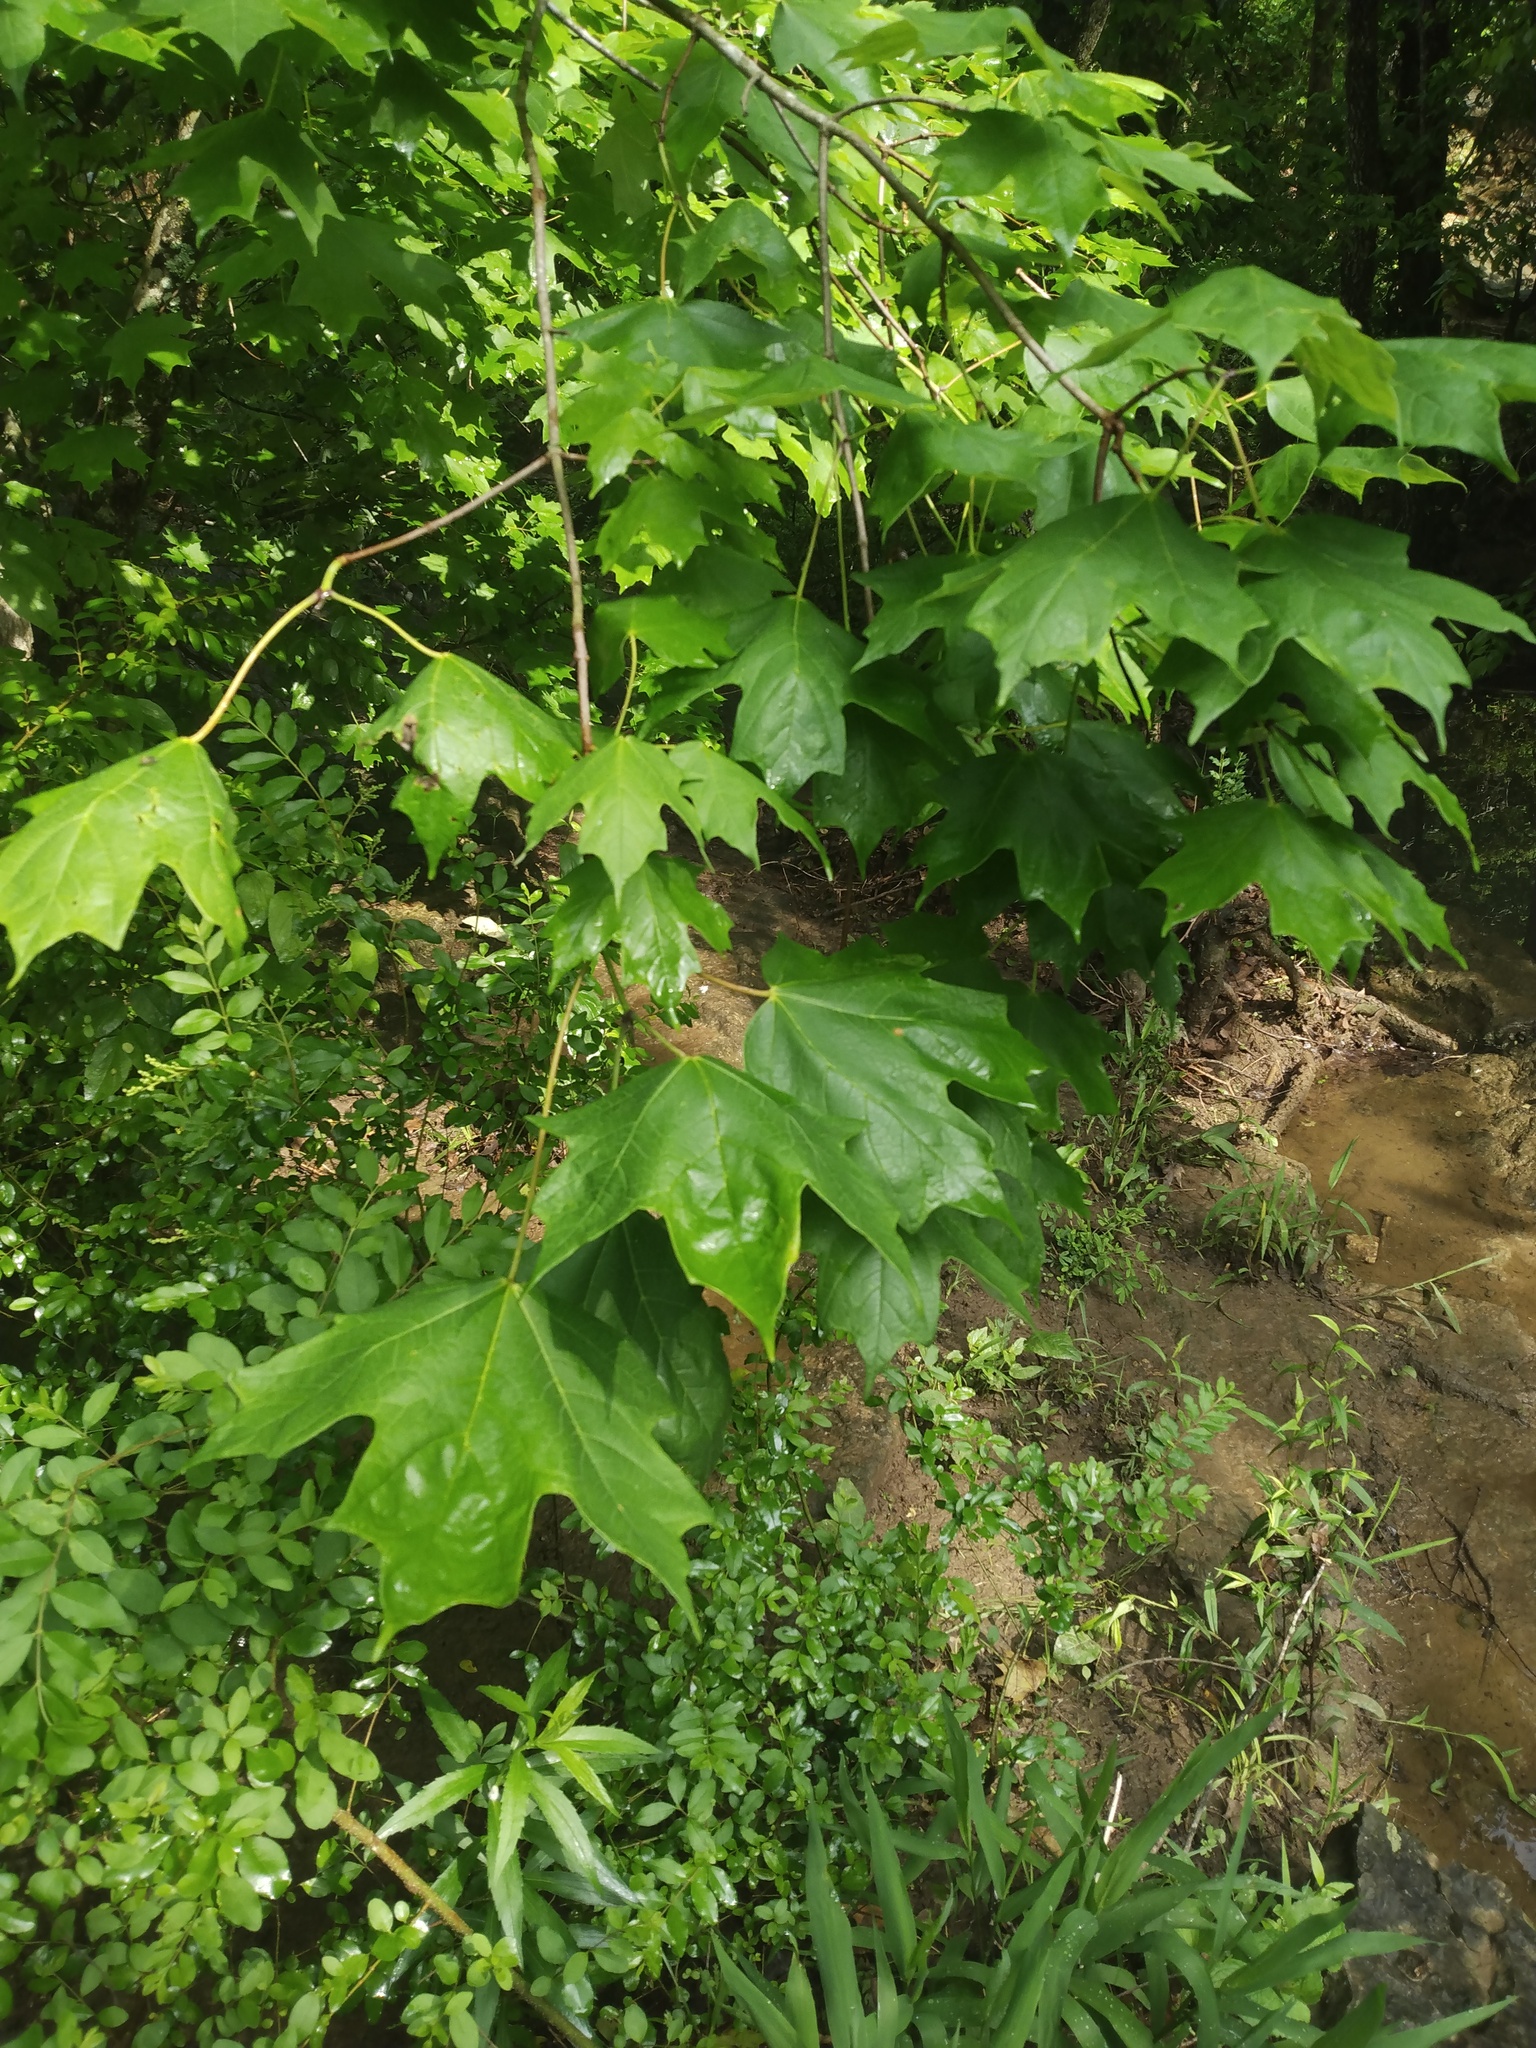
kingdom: Plantae
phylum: Tracheophyta
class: Magnoliopsida
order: Sapindales
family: Sapindaceae
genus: Acer
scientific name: Acer saccharum
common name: Sugar maple
